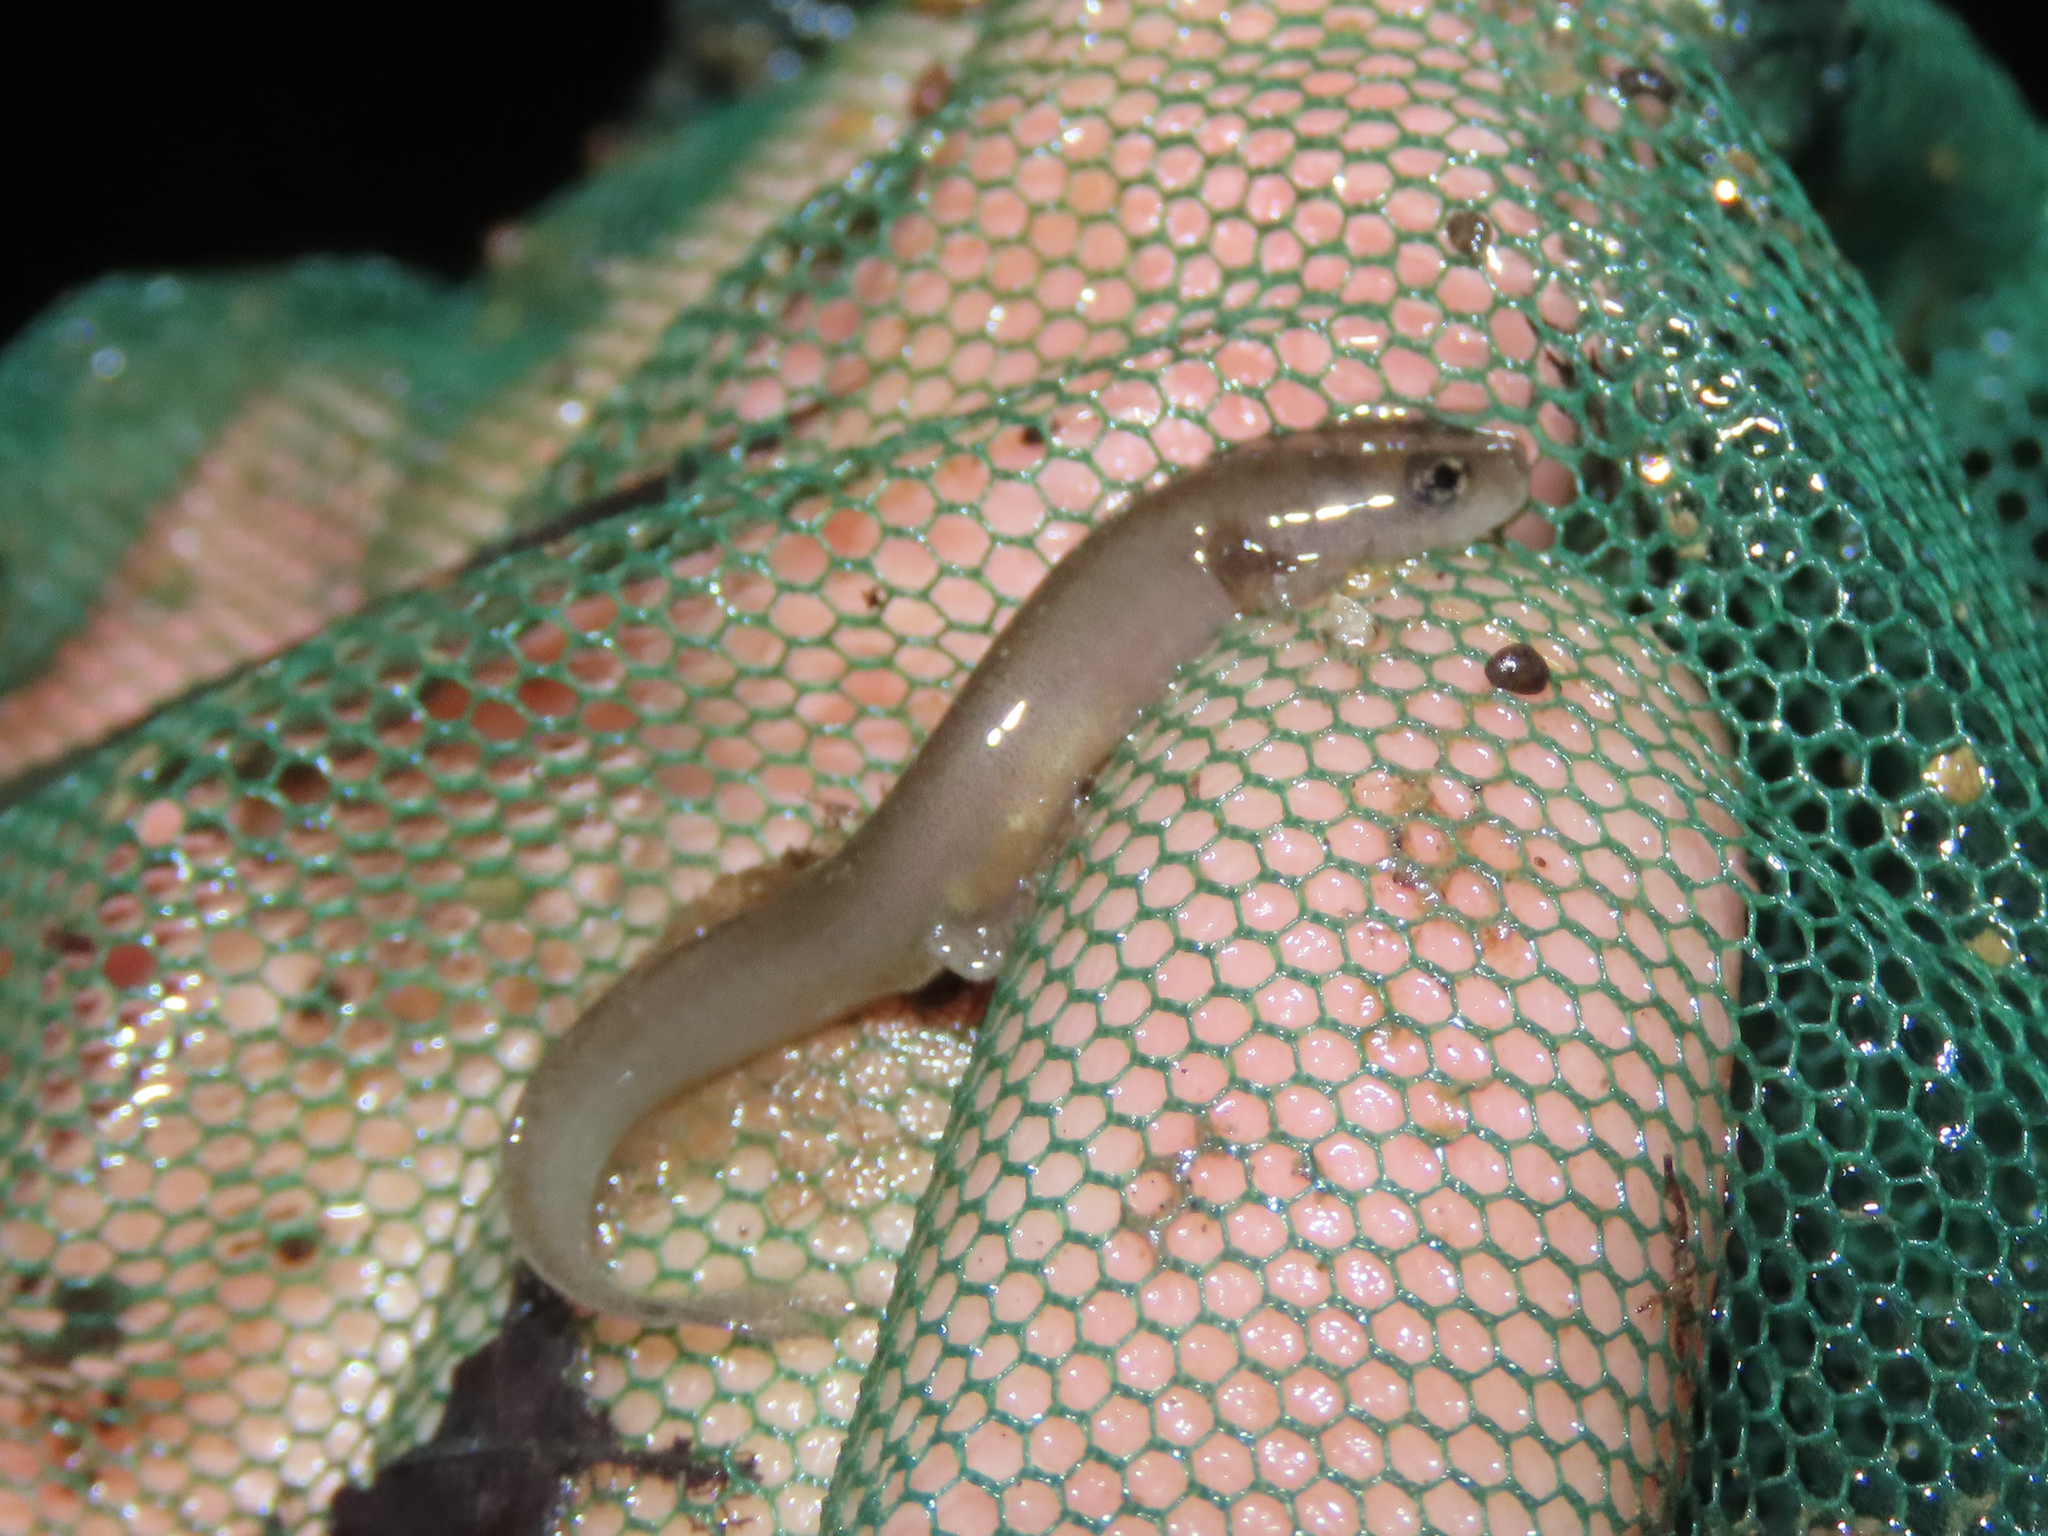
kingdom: Animalia
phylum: Chordata
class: Amphibia
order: Caudata
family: Plethodontidae
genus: Eurycea
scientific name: Eurycea cirrigera
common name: Southern two-lined salamander
